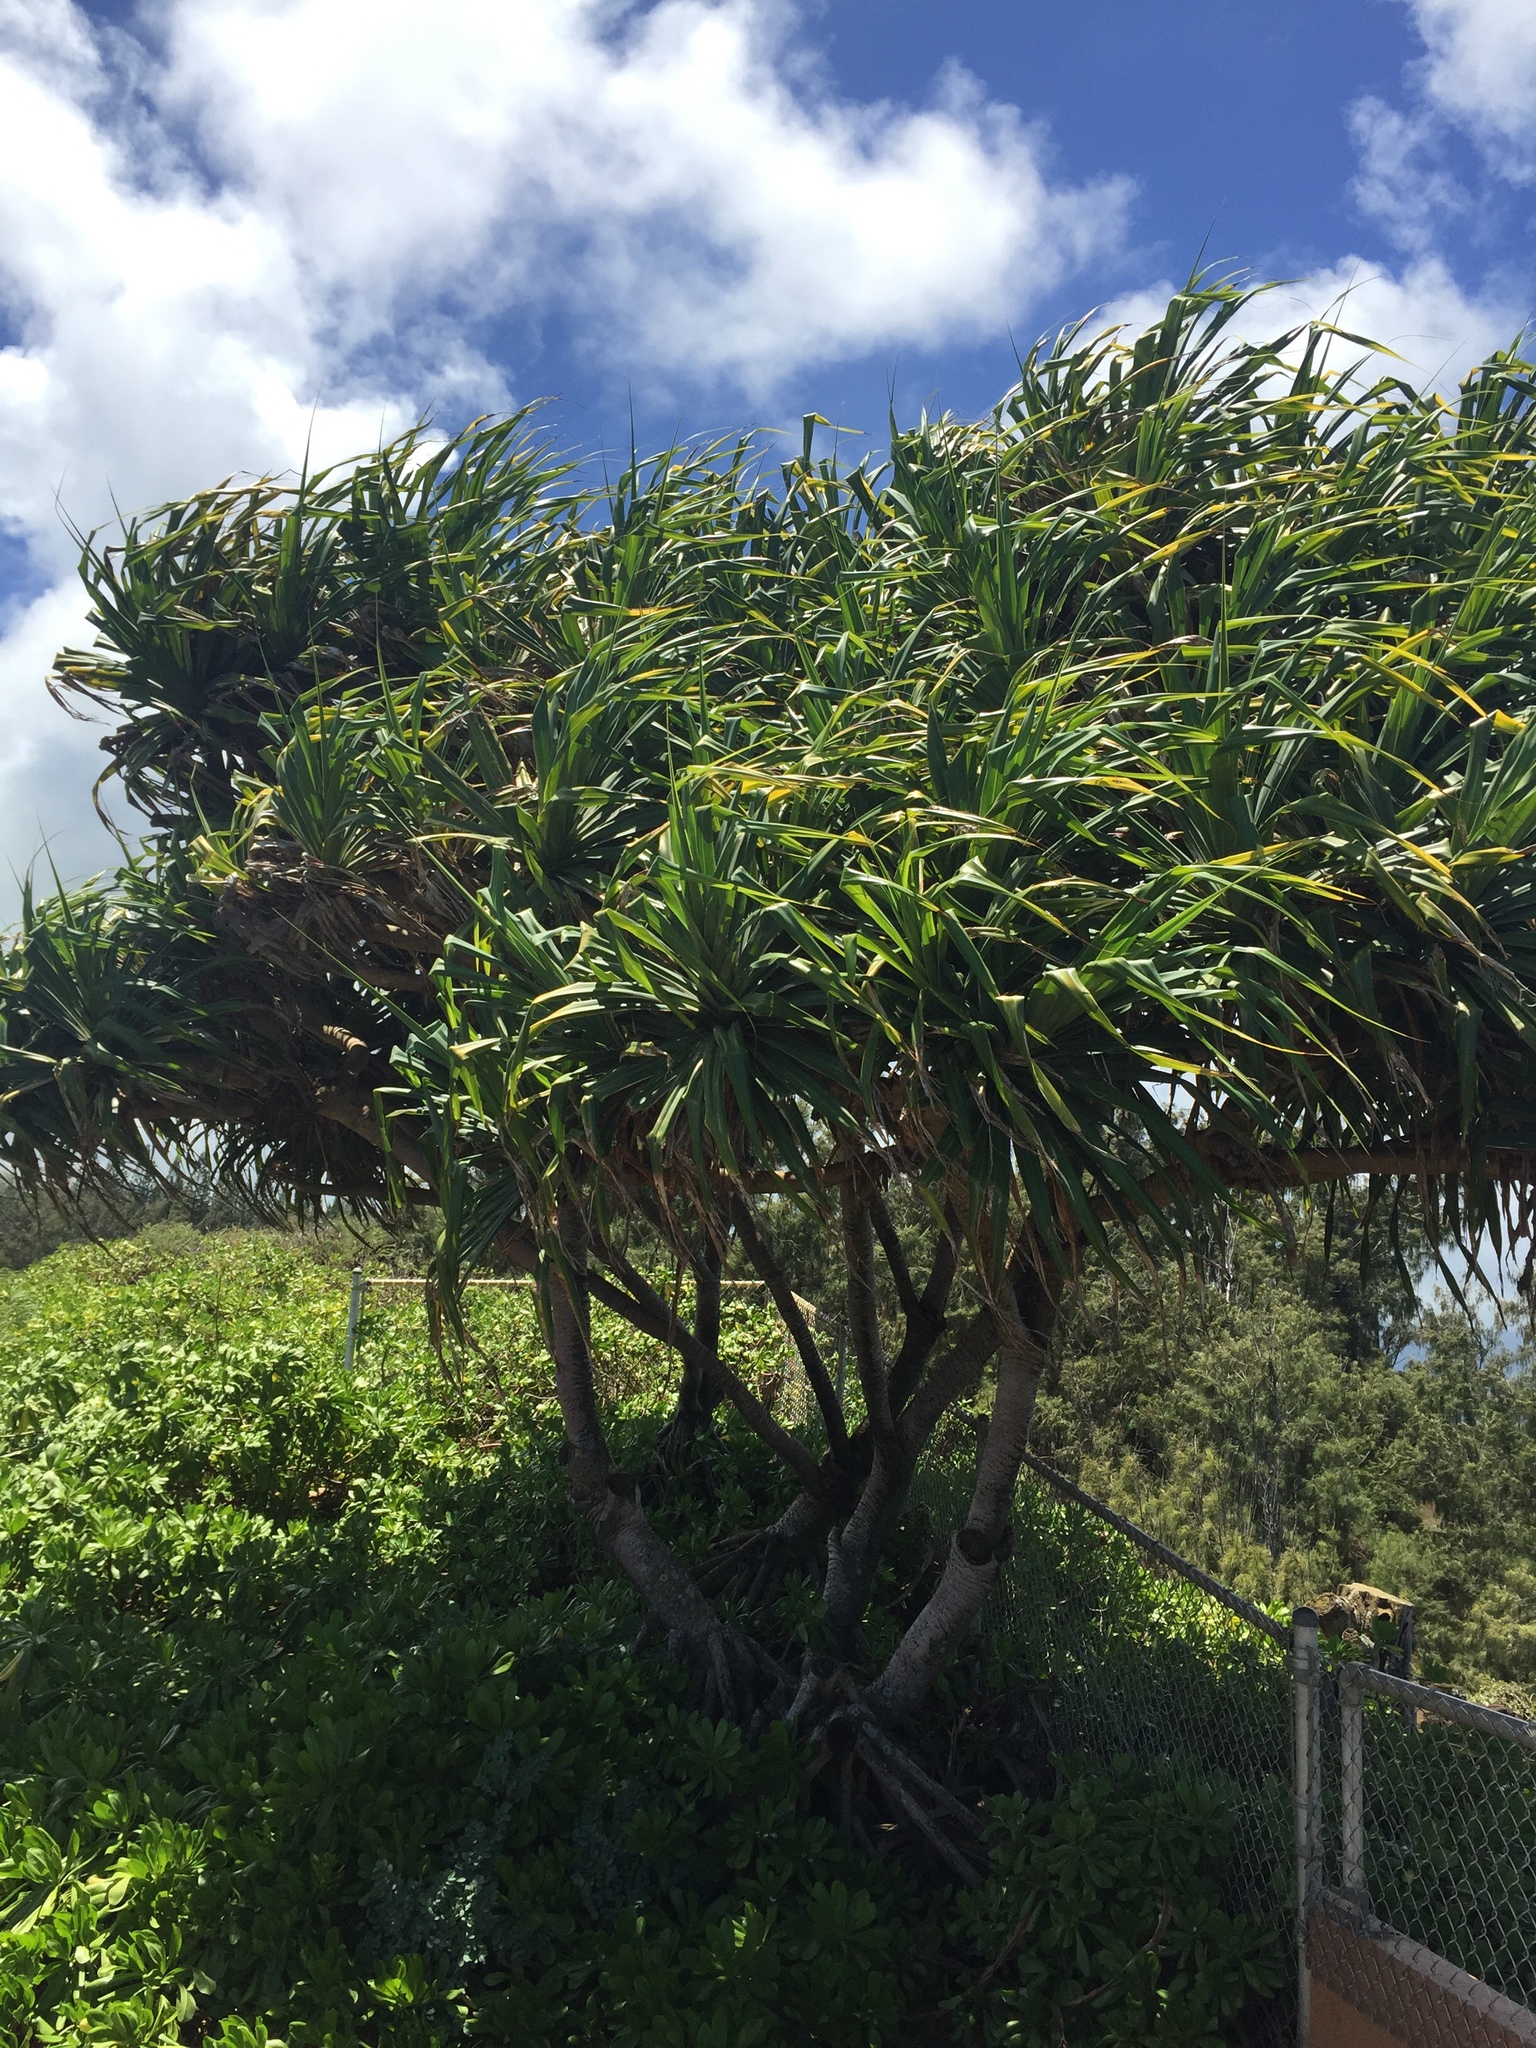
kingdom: Plantae
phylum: Tracheophyta
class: Liliopsida
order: Pandanales
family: Pandanaceae
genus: Pandanus
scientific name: Pandanus tectorius
